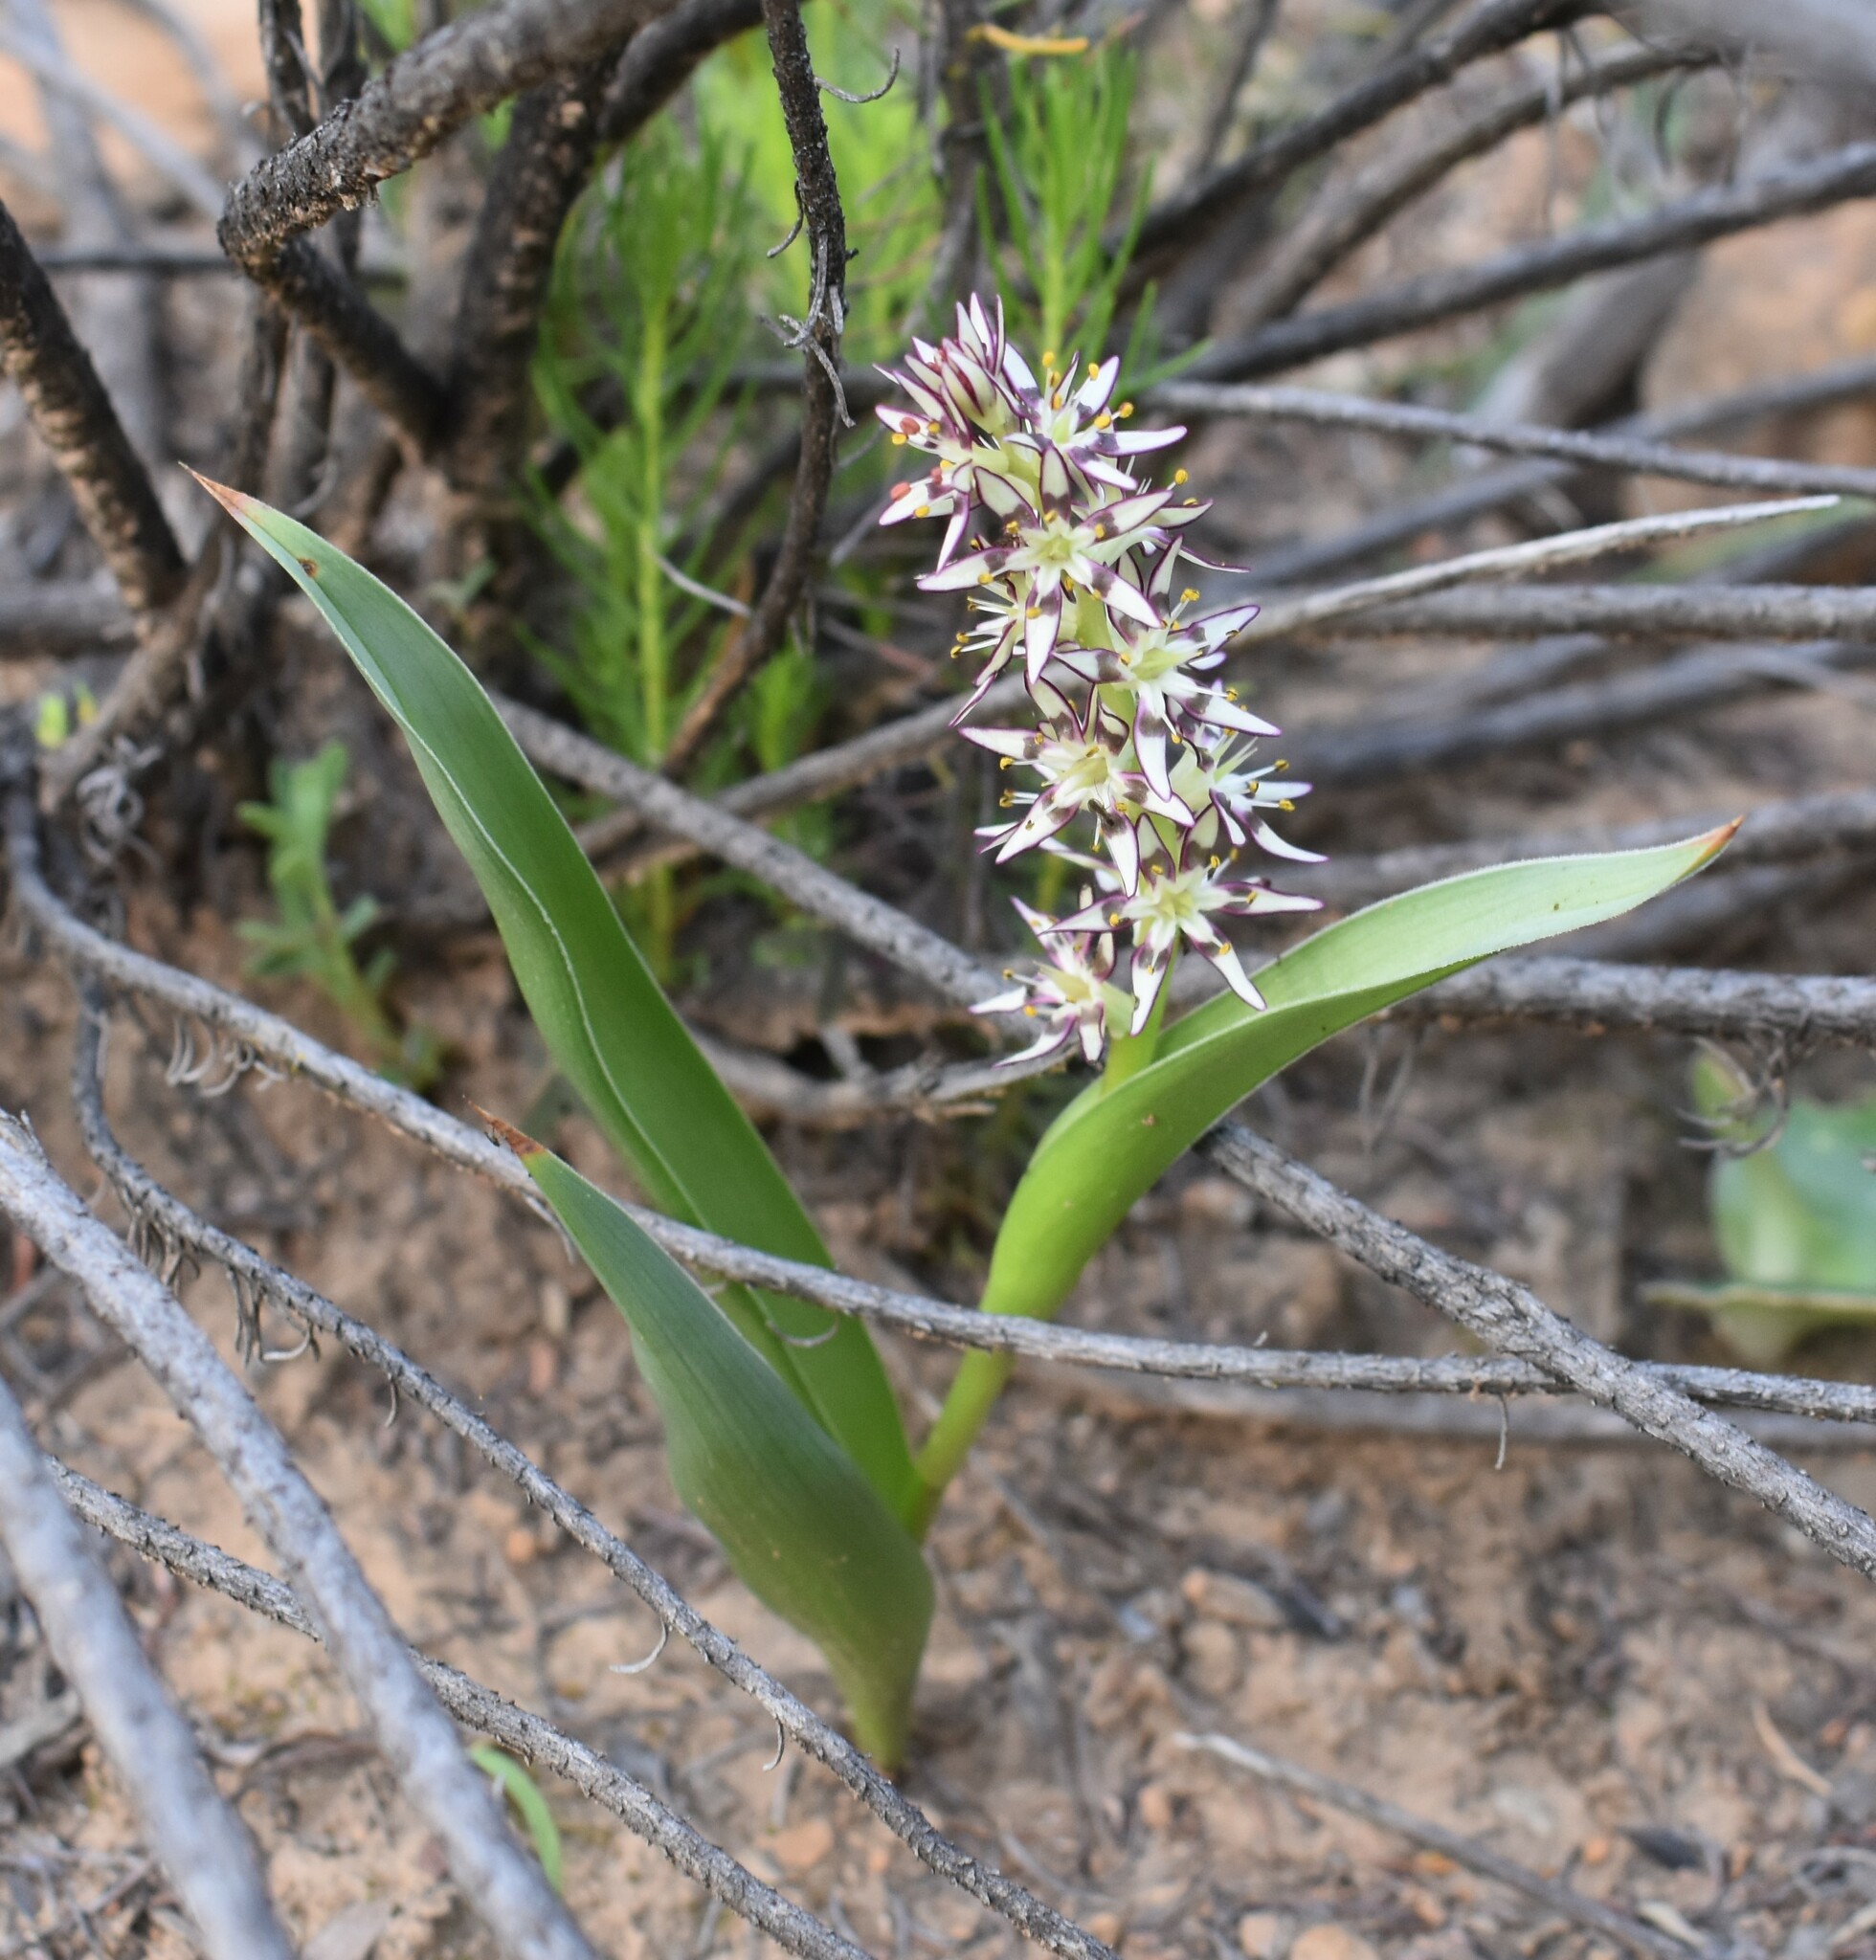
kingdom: Plantae
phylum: Tracheophyta
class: Liliopsida
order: Liliales
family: Colchicaceae
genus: Wurmbea
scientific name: Wurmbea variabilis
